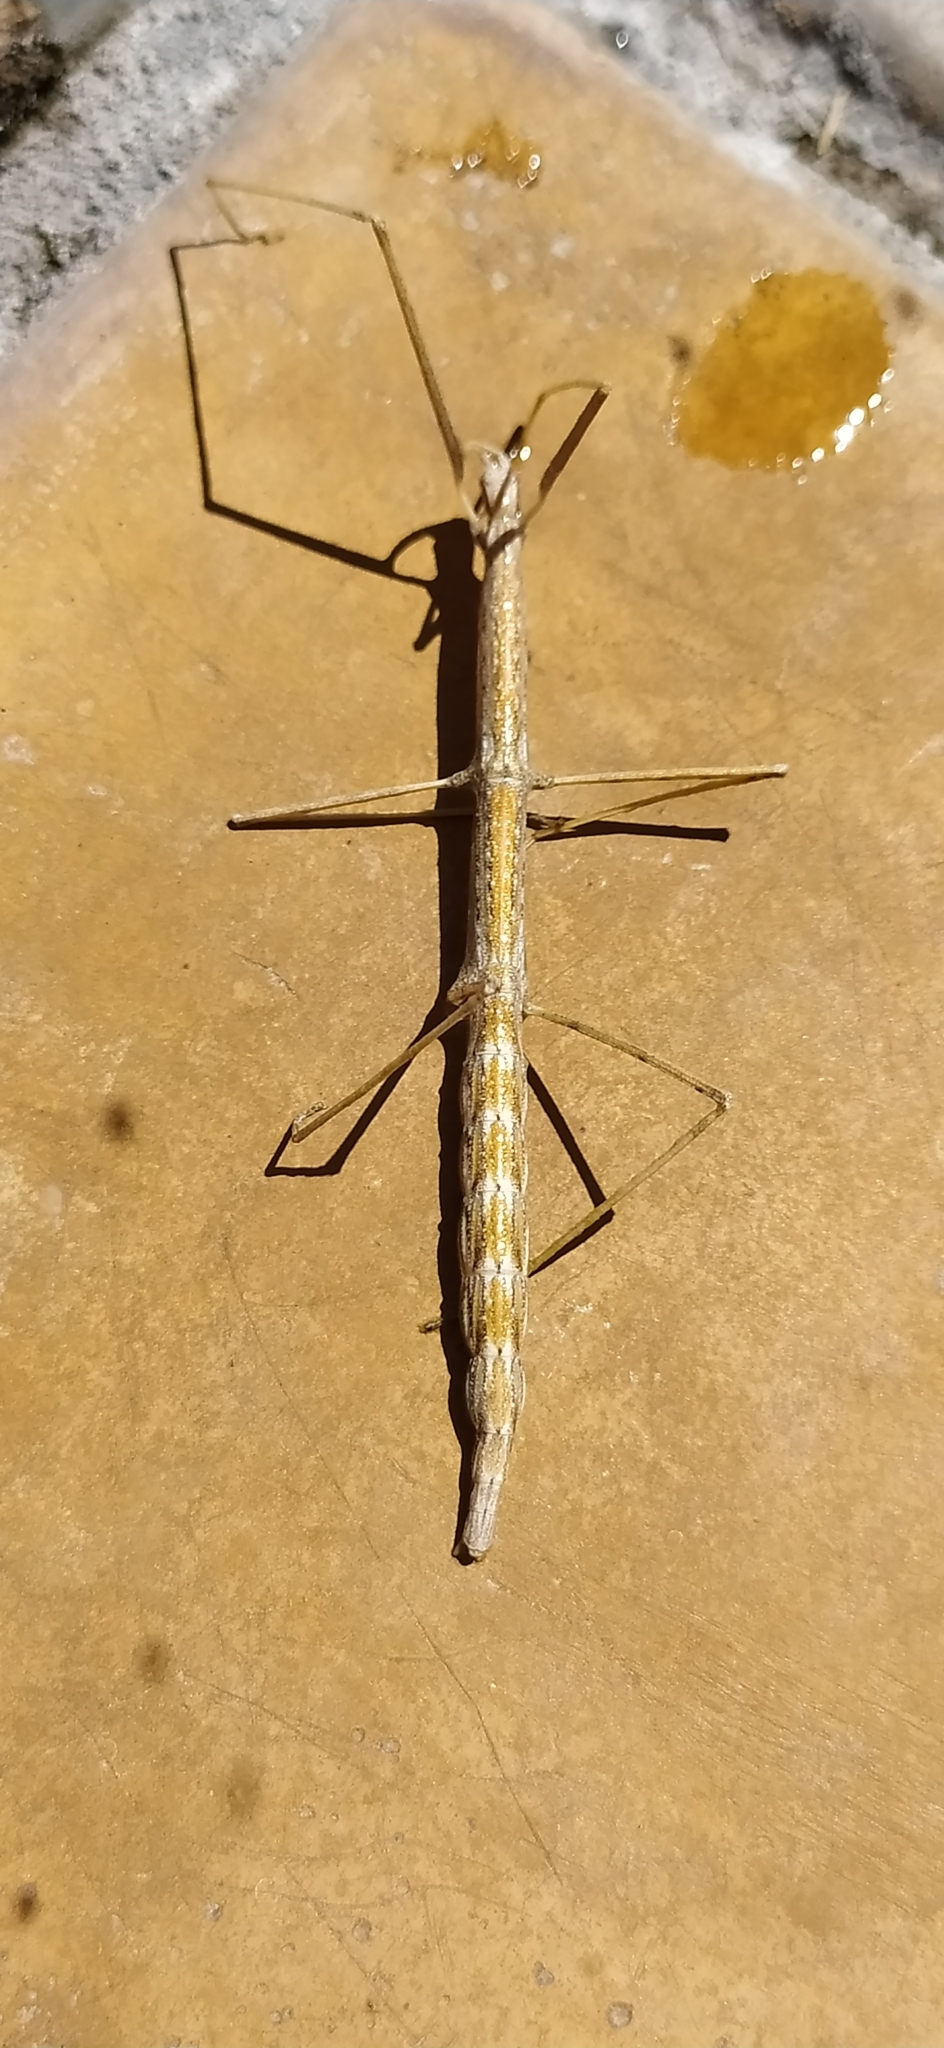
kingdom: Animalia
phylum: Arthropoda
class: Insecta
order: Phasmida
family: Bacillidae
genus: Sceptrophasma
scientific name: Sceptrophasma bituberculatum
